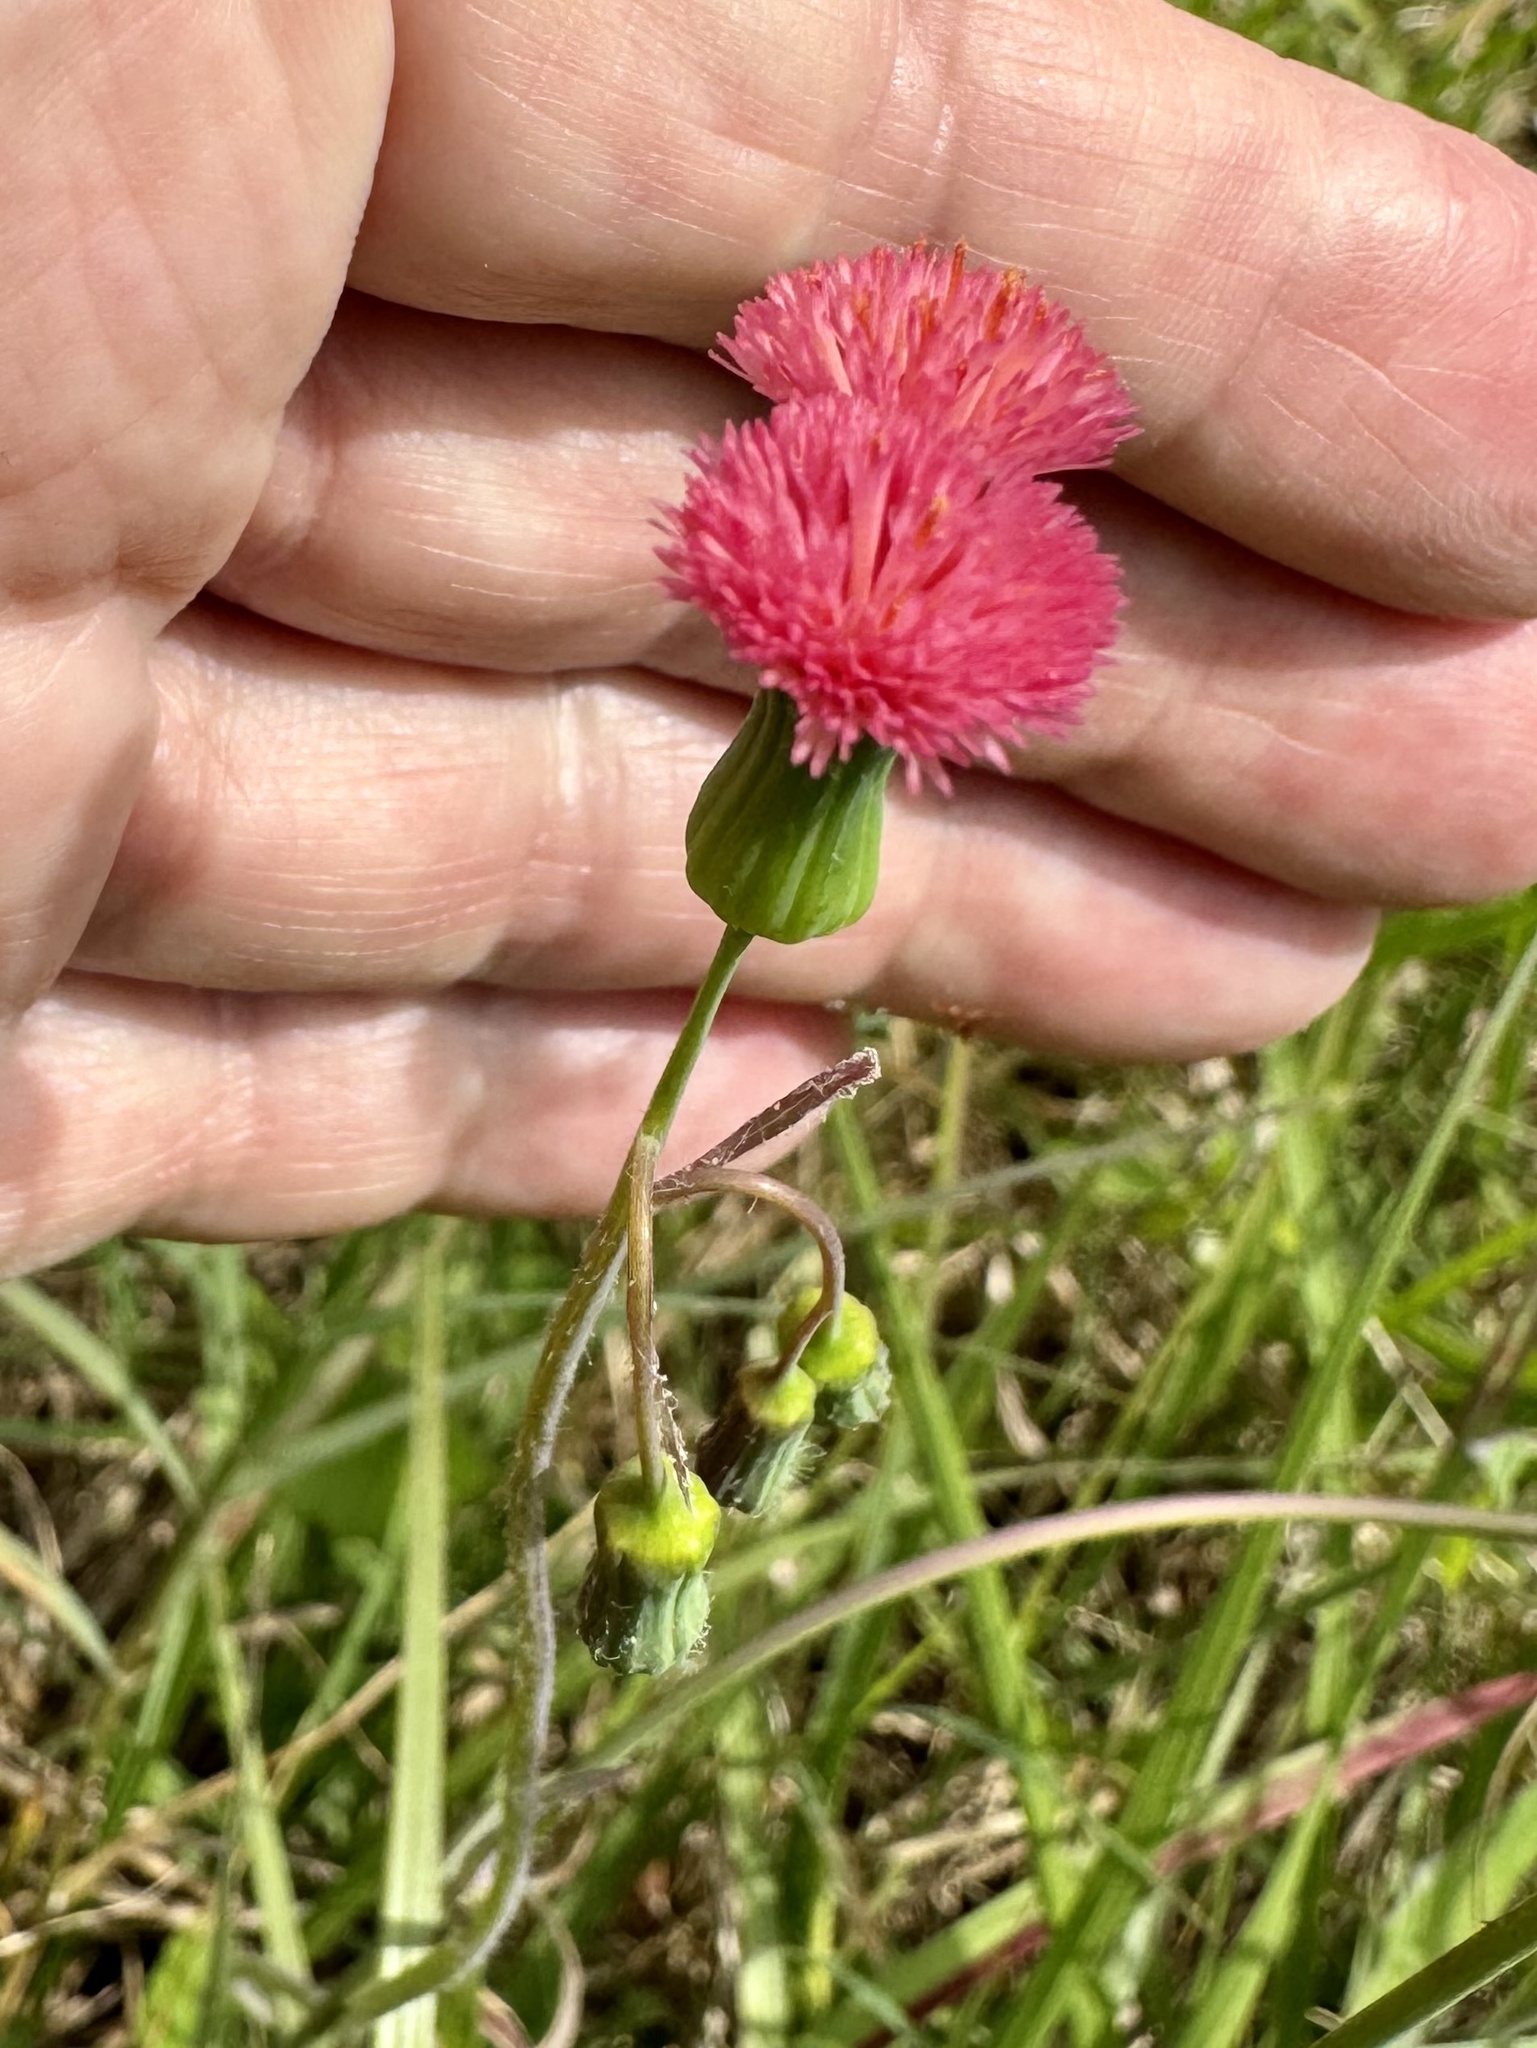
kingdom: Plantae
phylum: Tracheophyta
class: Magnoliopsida
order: Asterales
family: Asteraceae
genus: Emilia
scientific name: Emilia fosbergii
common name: Florida tasselflower
